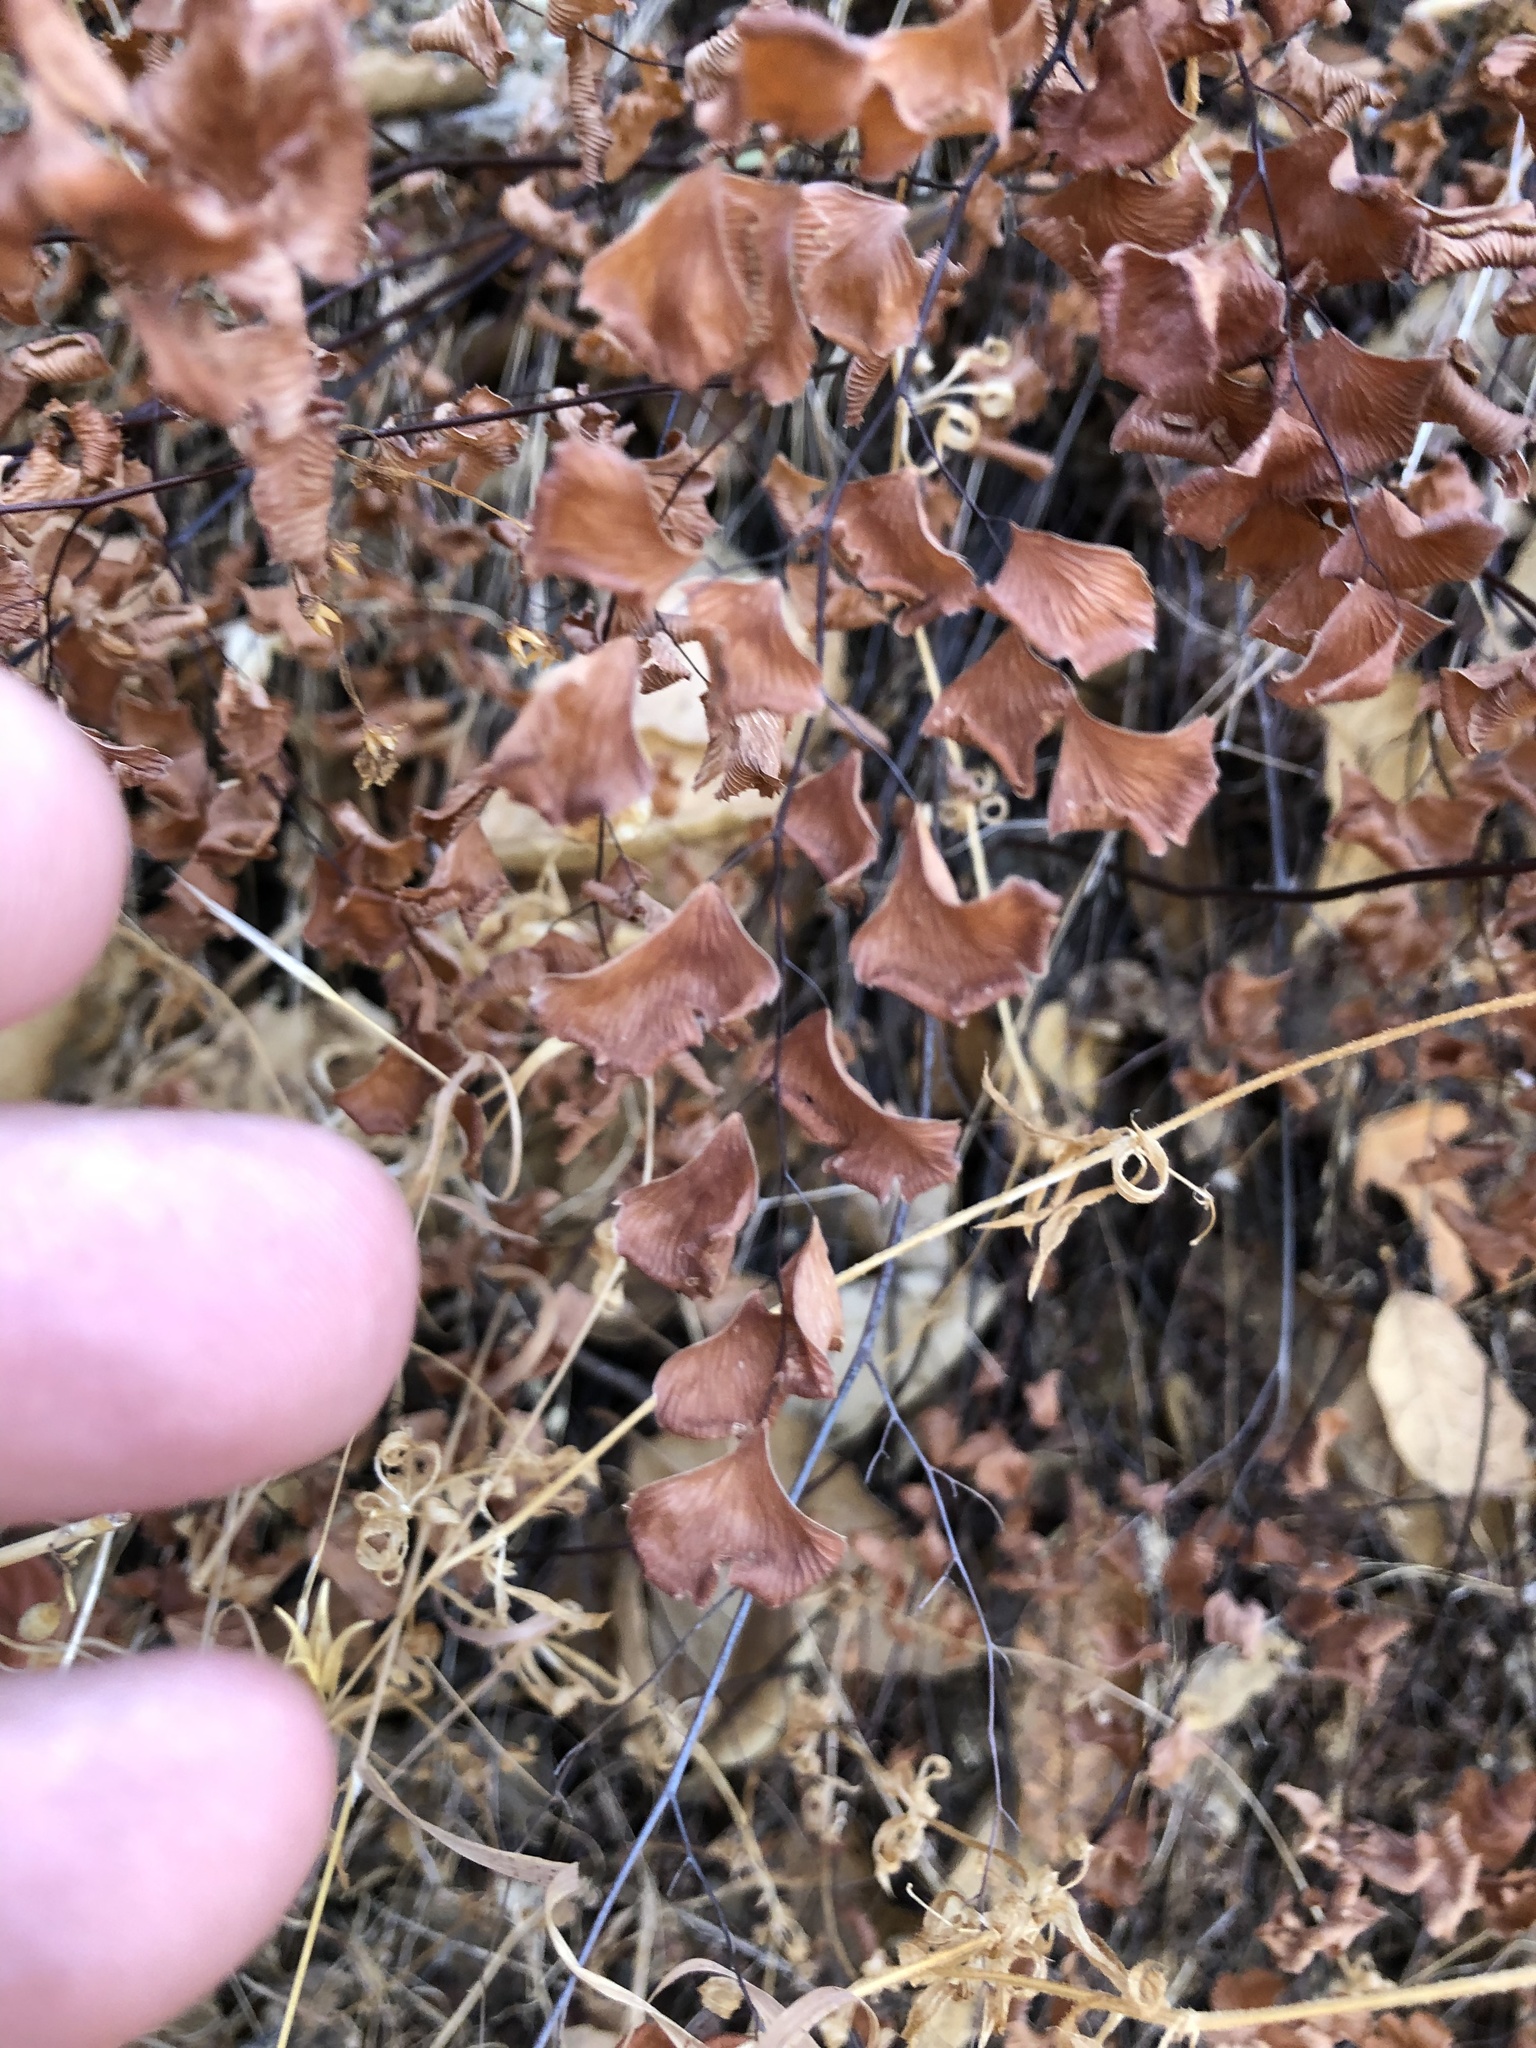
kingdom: Plantae
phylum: Tracheophyta
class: Polypodiopsida
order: Polypodiales
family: Pteridaceae
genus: Adiantum
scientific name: Adiantum jordanii
